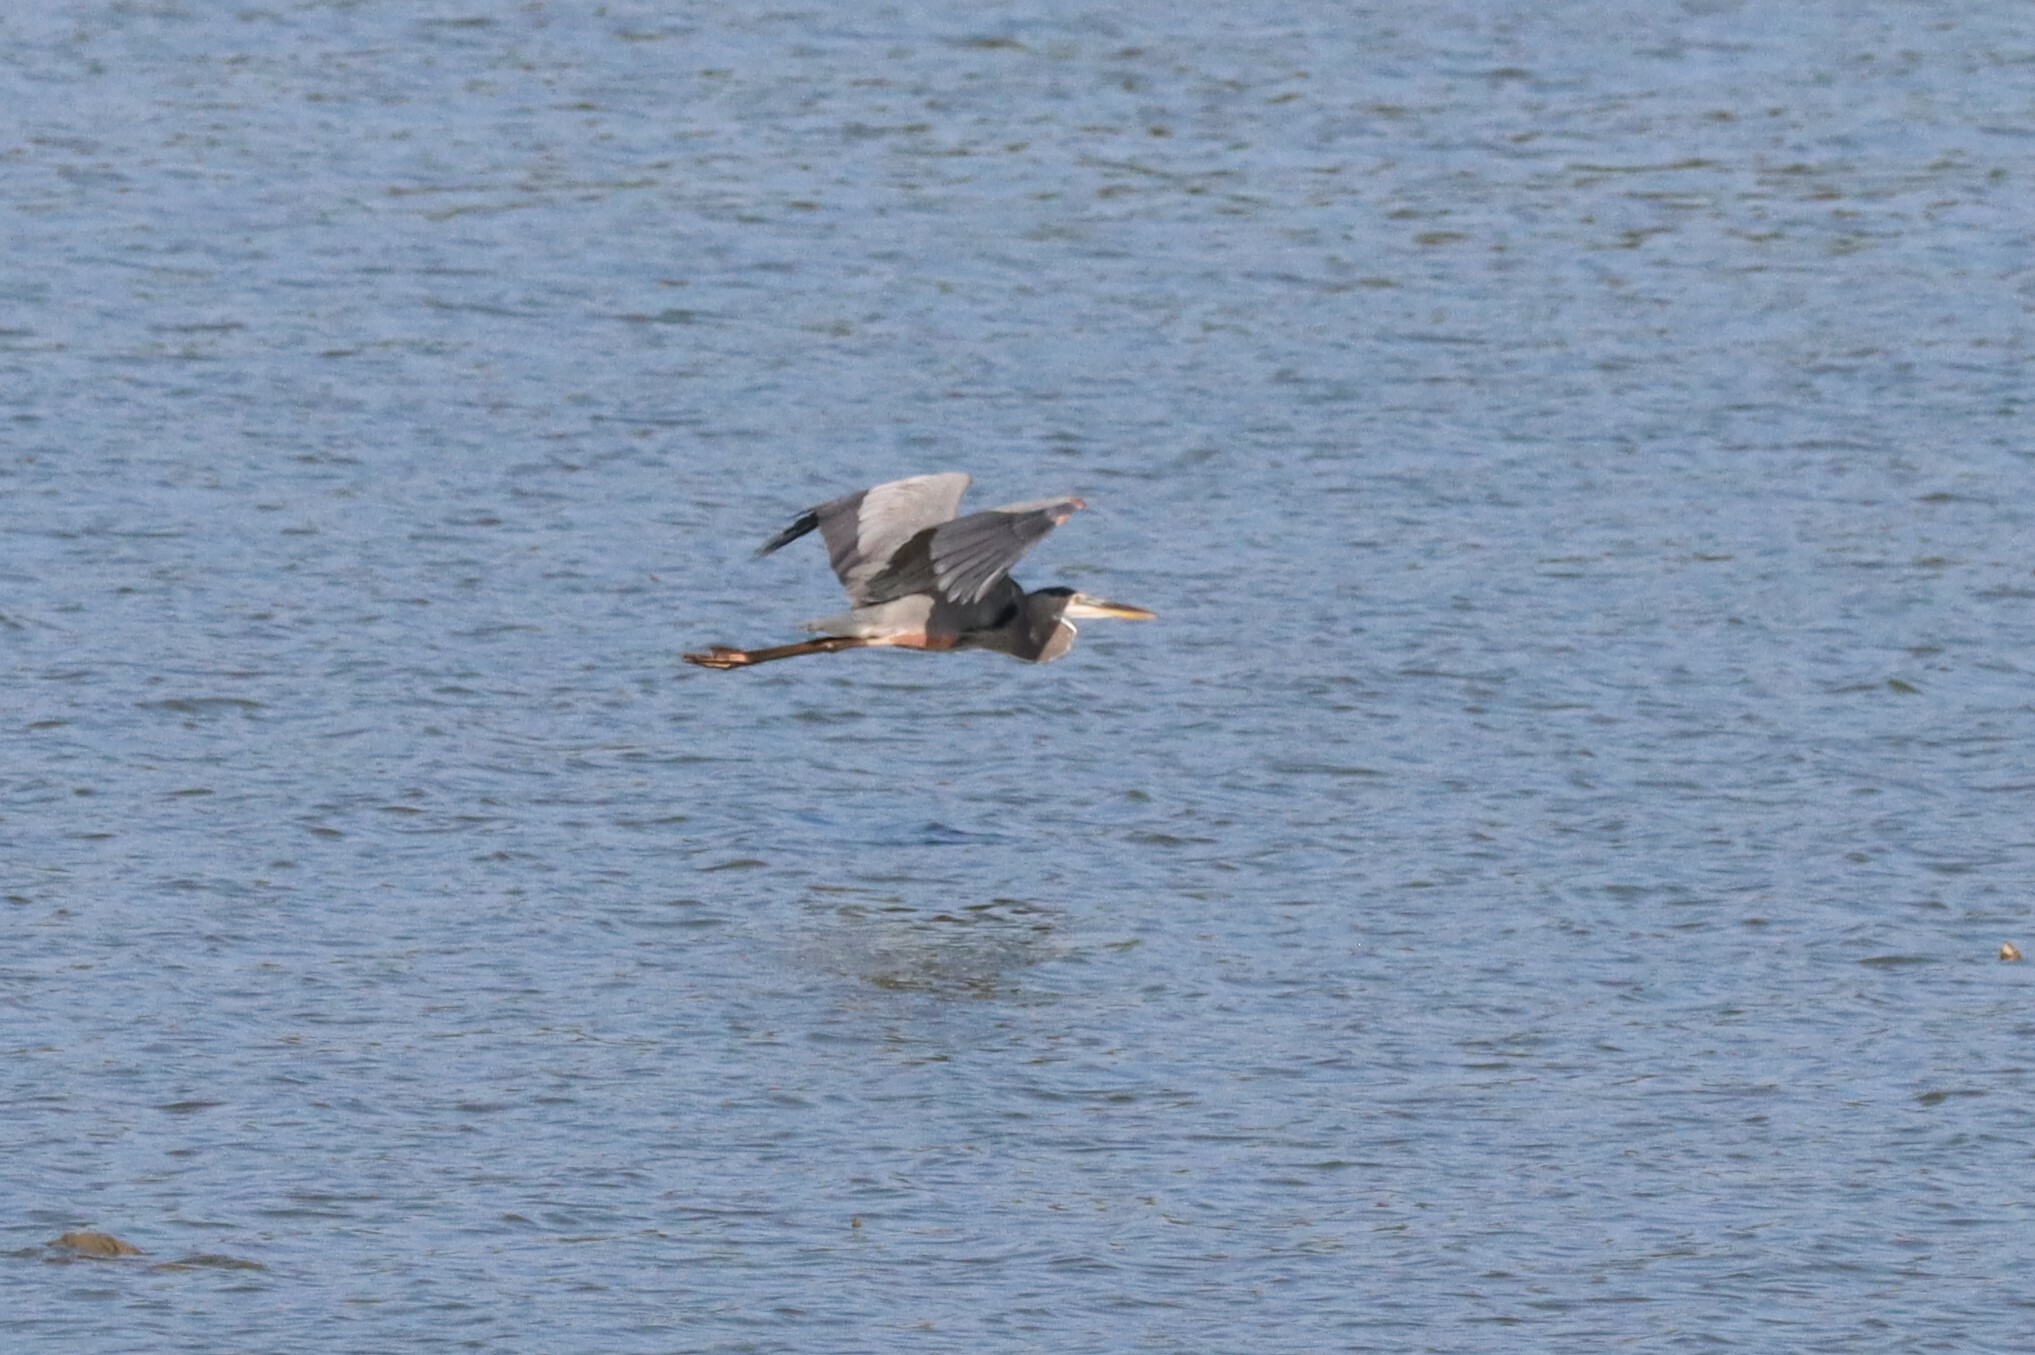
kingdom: Animalia
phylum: Chordata
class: Aves
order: Pelecaniformes
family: Ardeidae
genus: Ardea
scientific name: Ardea herodias
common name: Great blue heron
